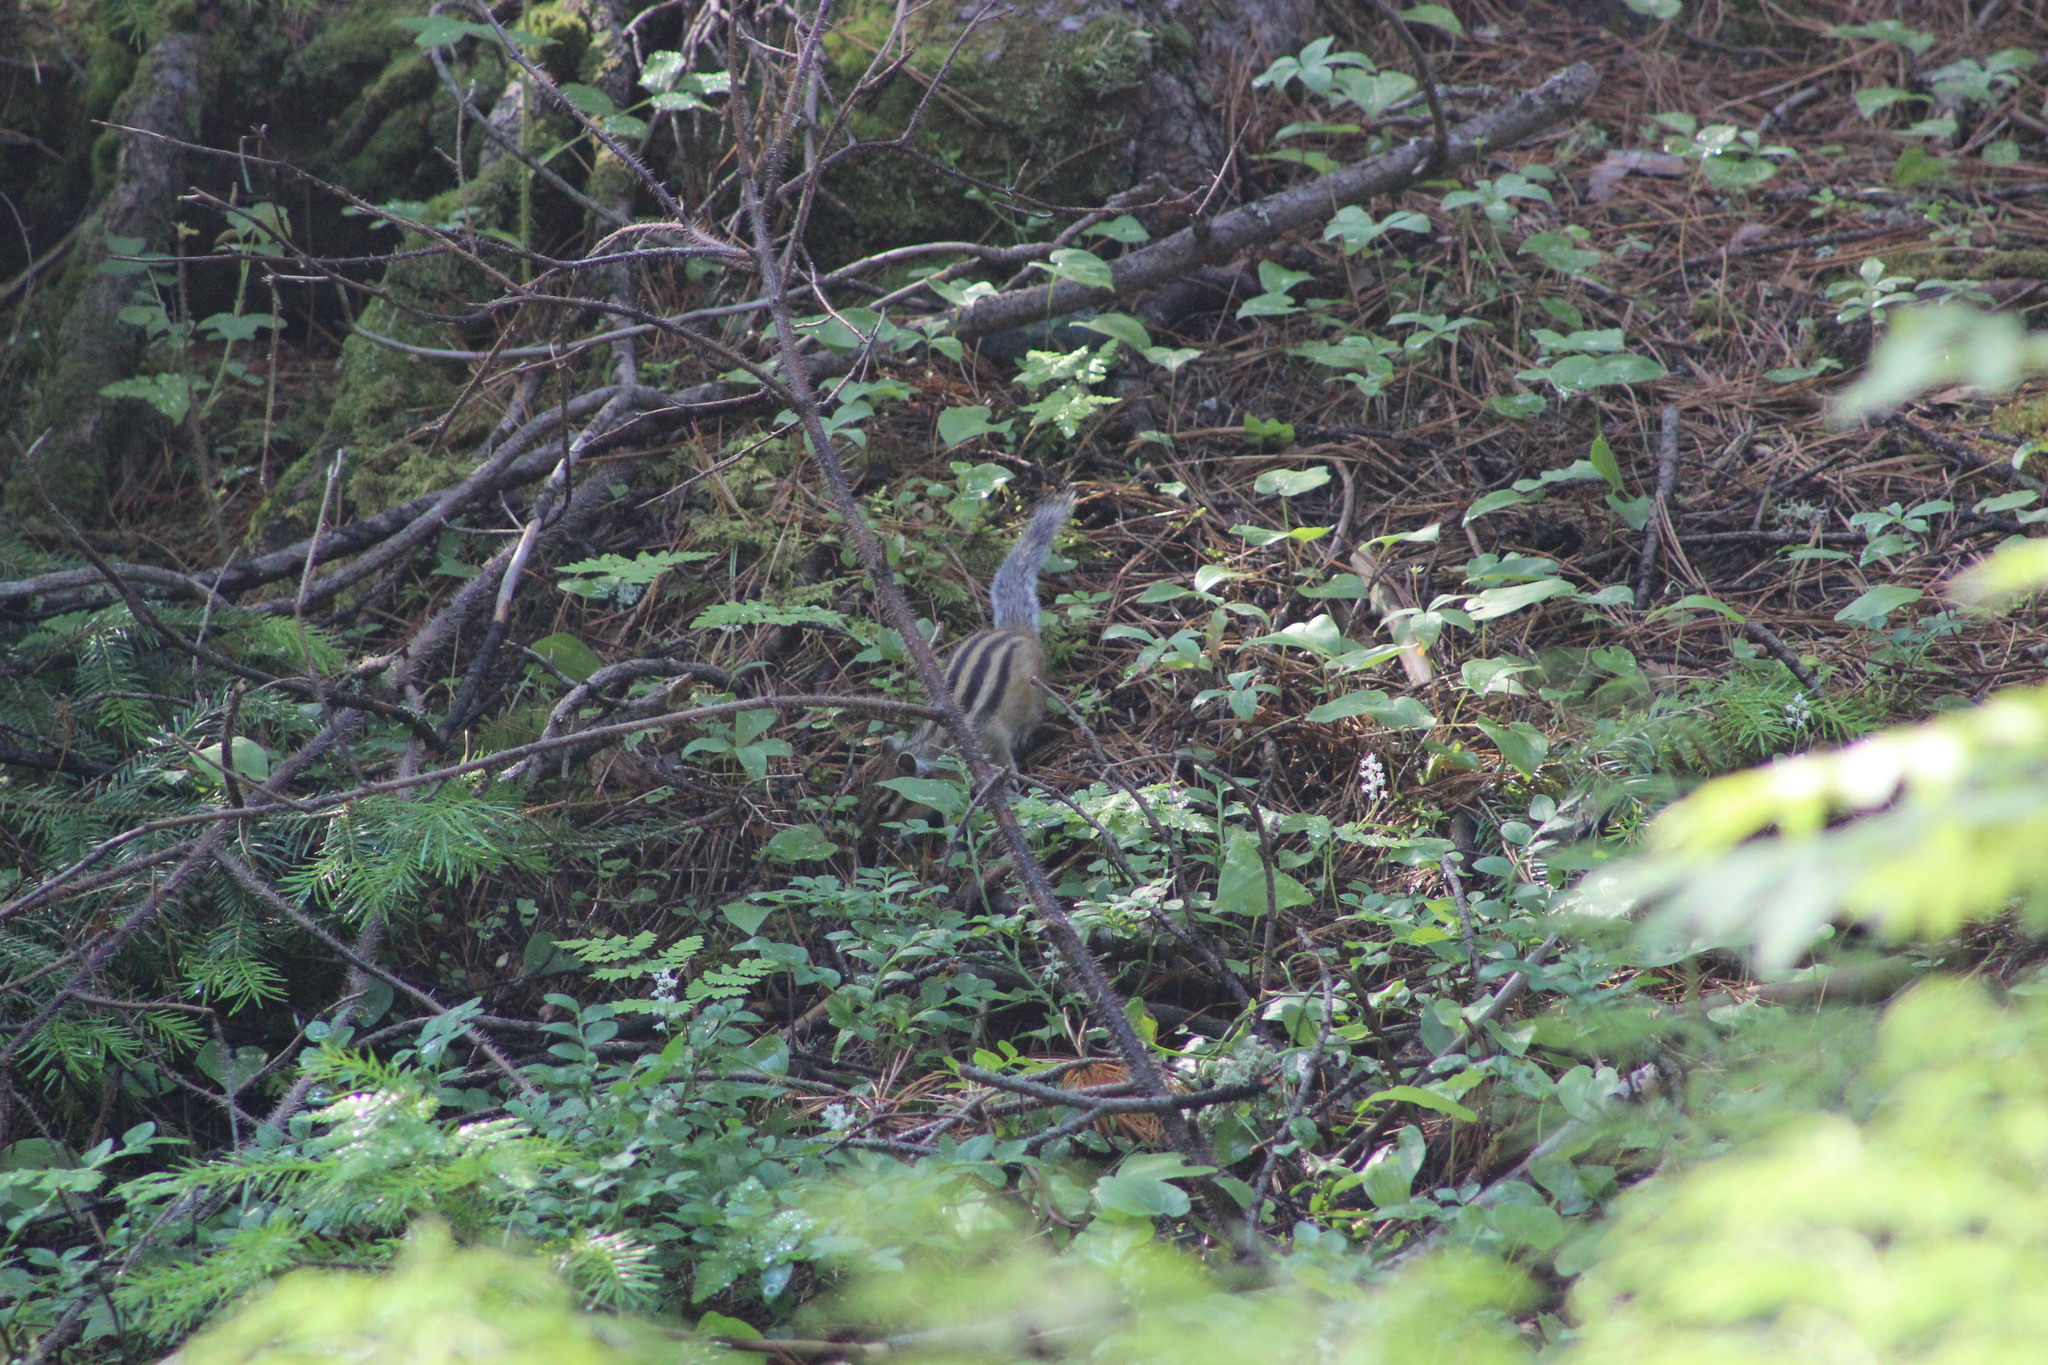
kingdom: Animalia
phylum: Chordata
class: Mammalia
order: Rodentia
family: Sciuridae
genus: Tamias
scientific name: Tamias sibiricus
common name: Siberian chipmunk
